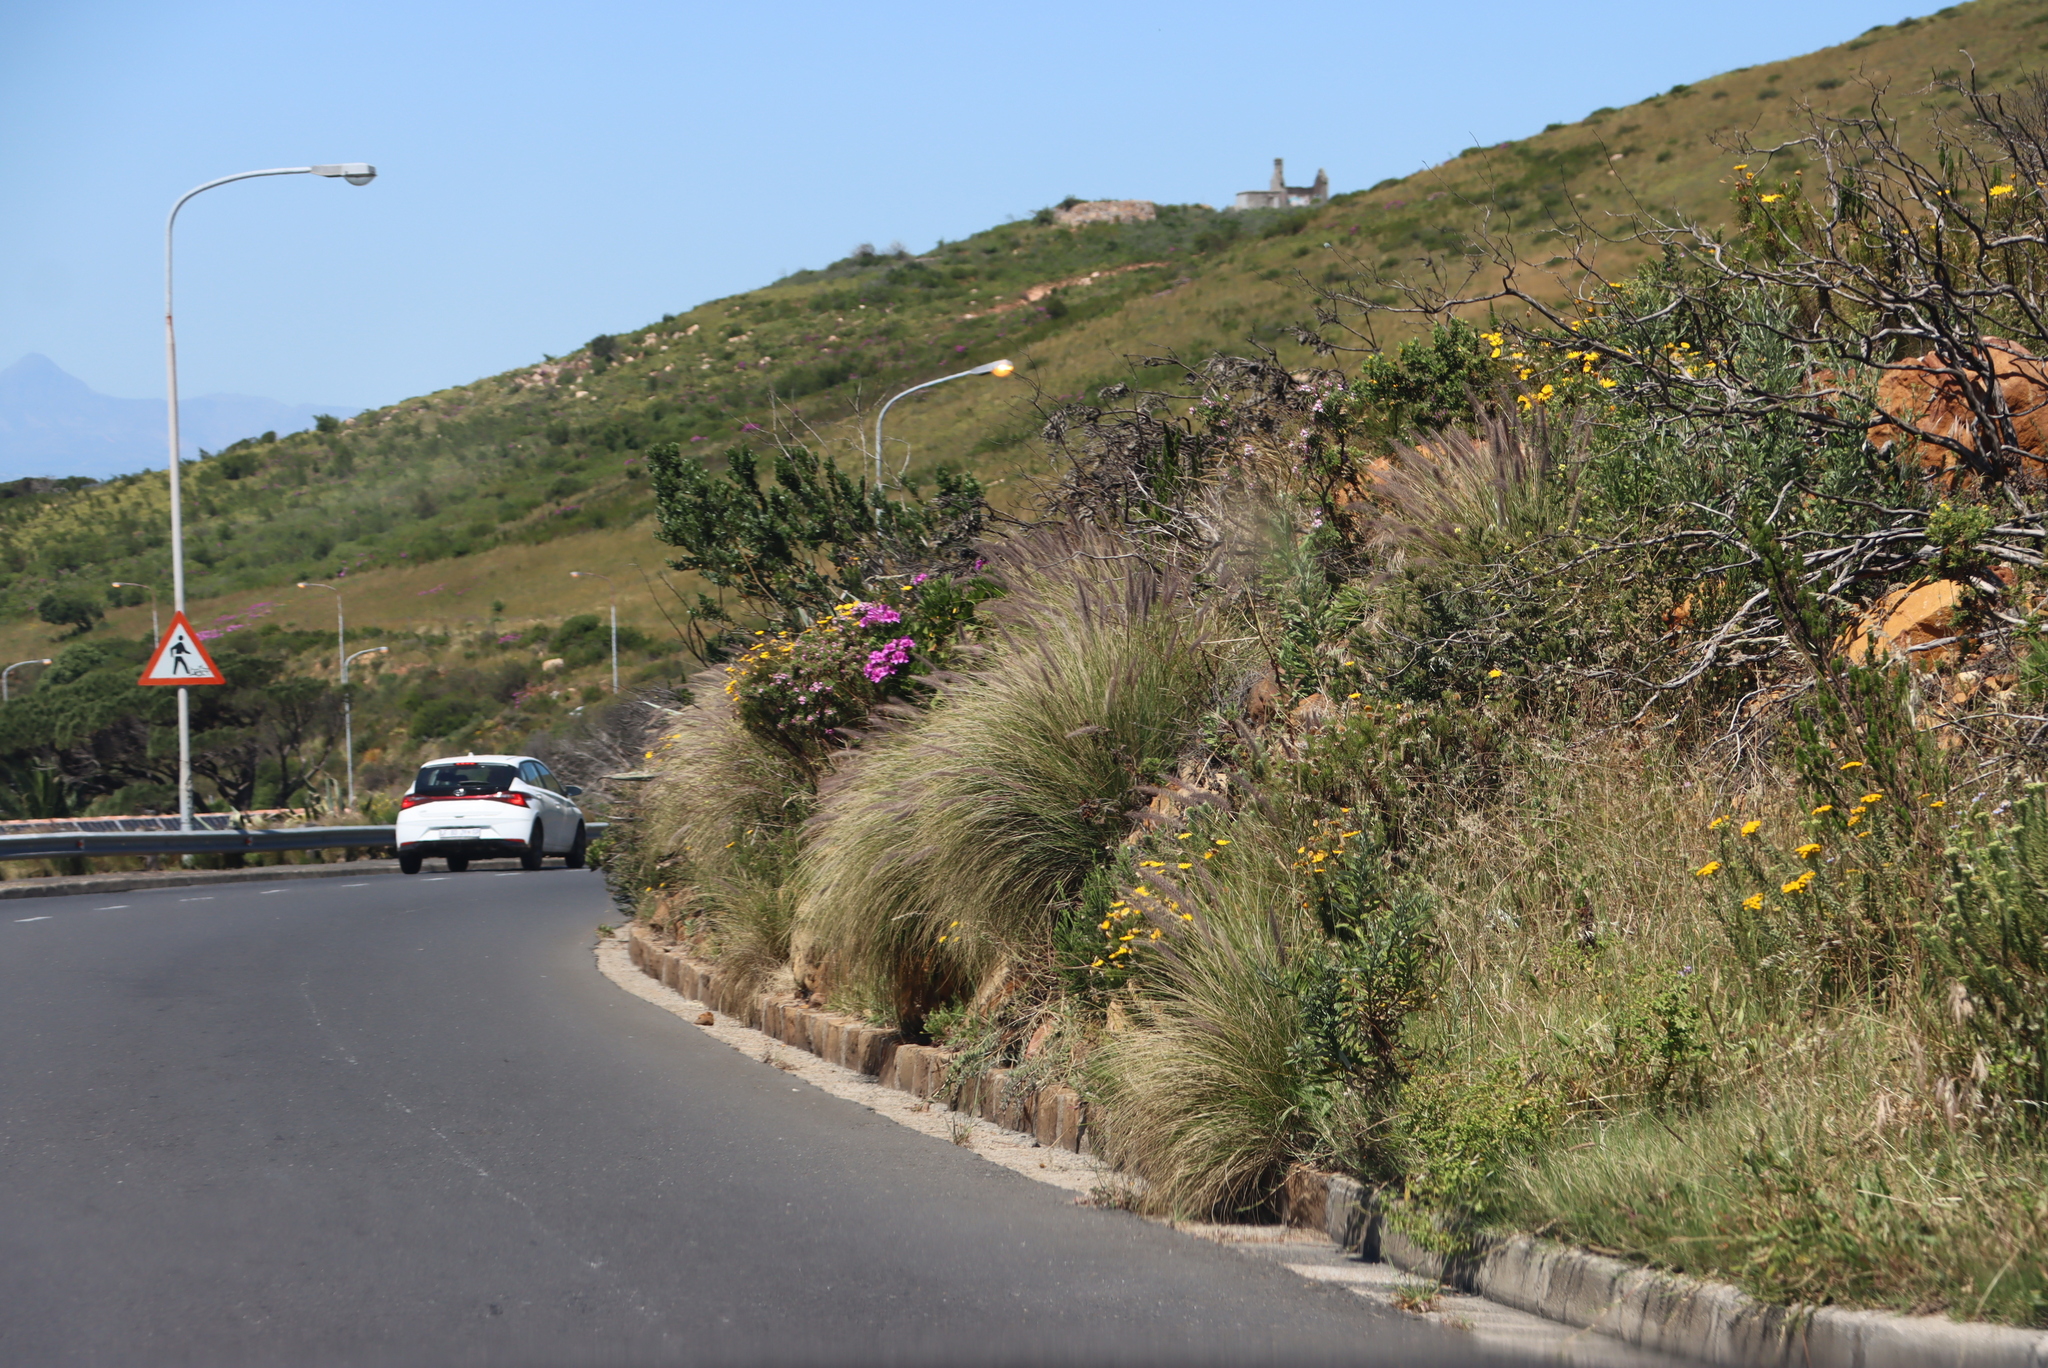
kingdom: Plantae
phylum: Tracheophyta
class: Liliopsida
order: Poales
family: Poaceae
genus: Cenchrus
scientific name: Cenchrus setaceus
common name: Crimson fountaingrass
